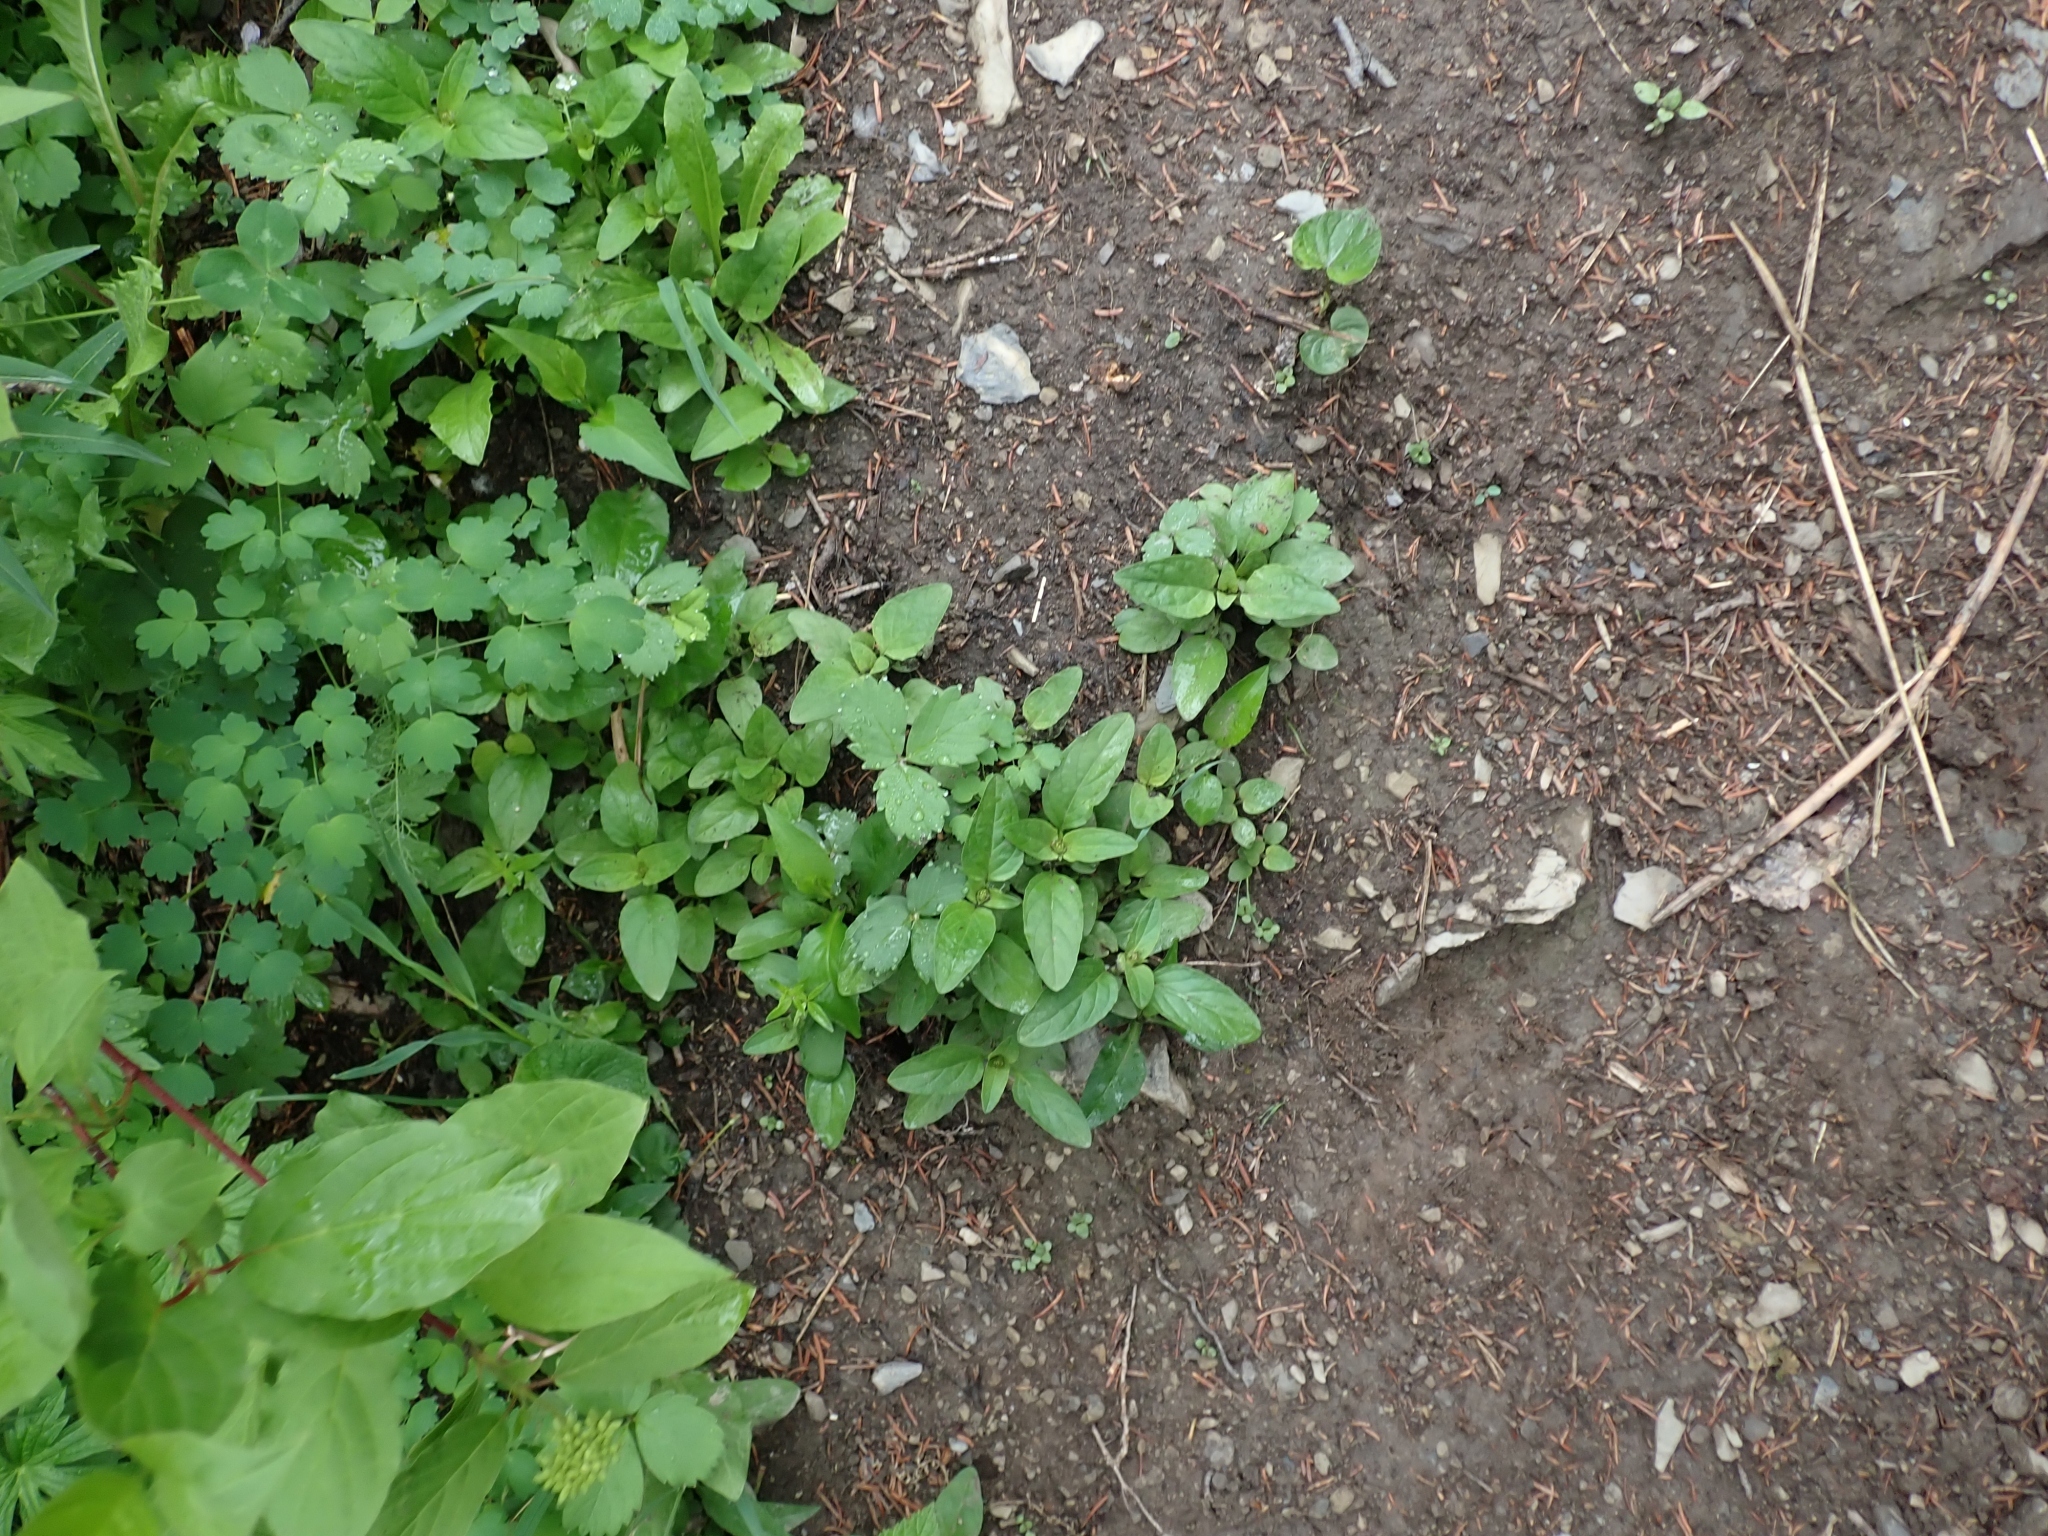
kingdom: Plantae
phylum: Tracheophyta
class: Magnoliopsida
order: Lamiales
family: Lamiaceae
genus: Prunella
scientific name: Prunella vulgaris
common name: Heal-all
